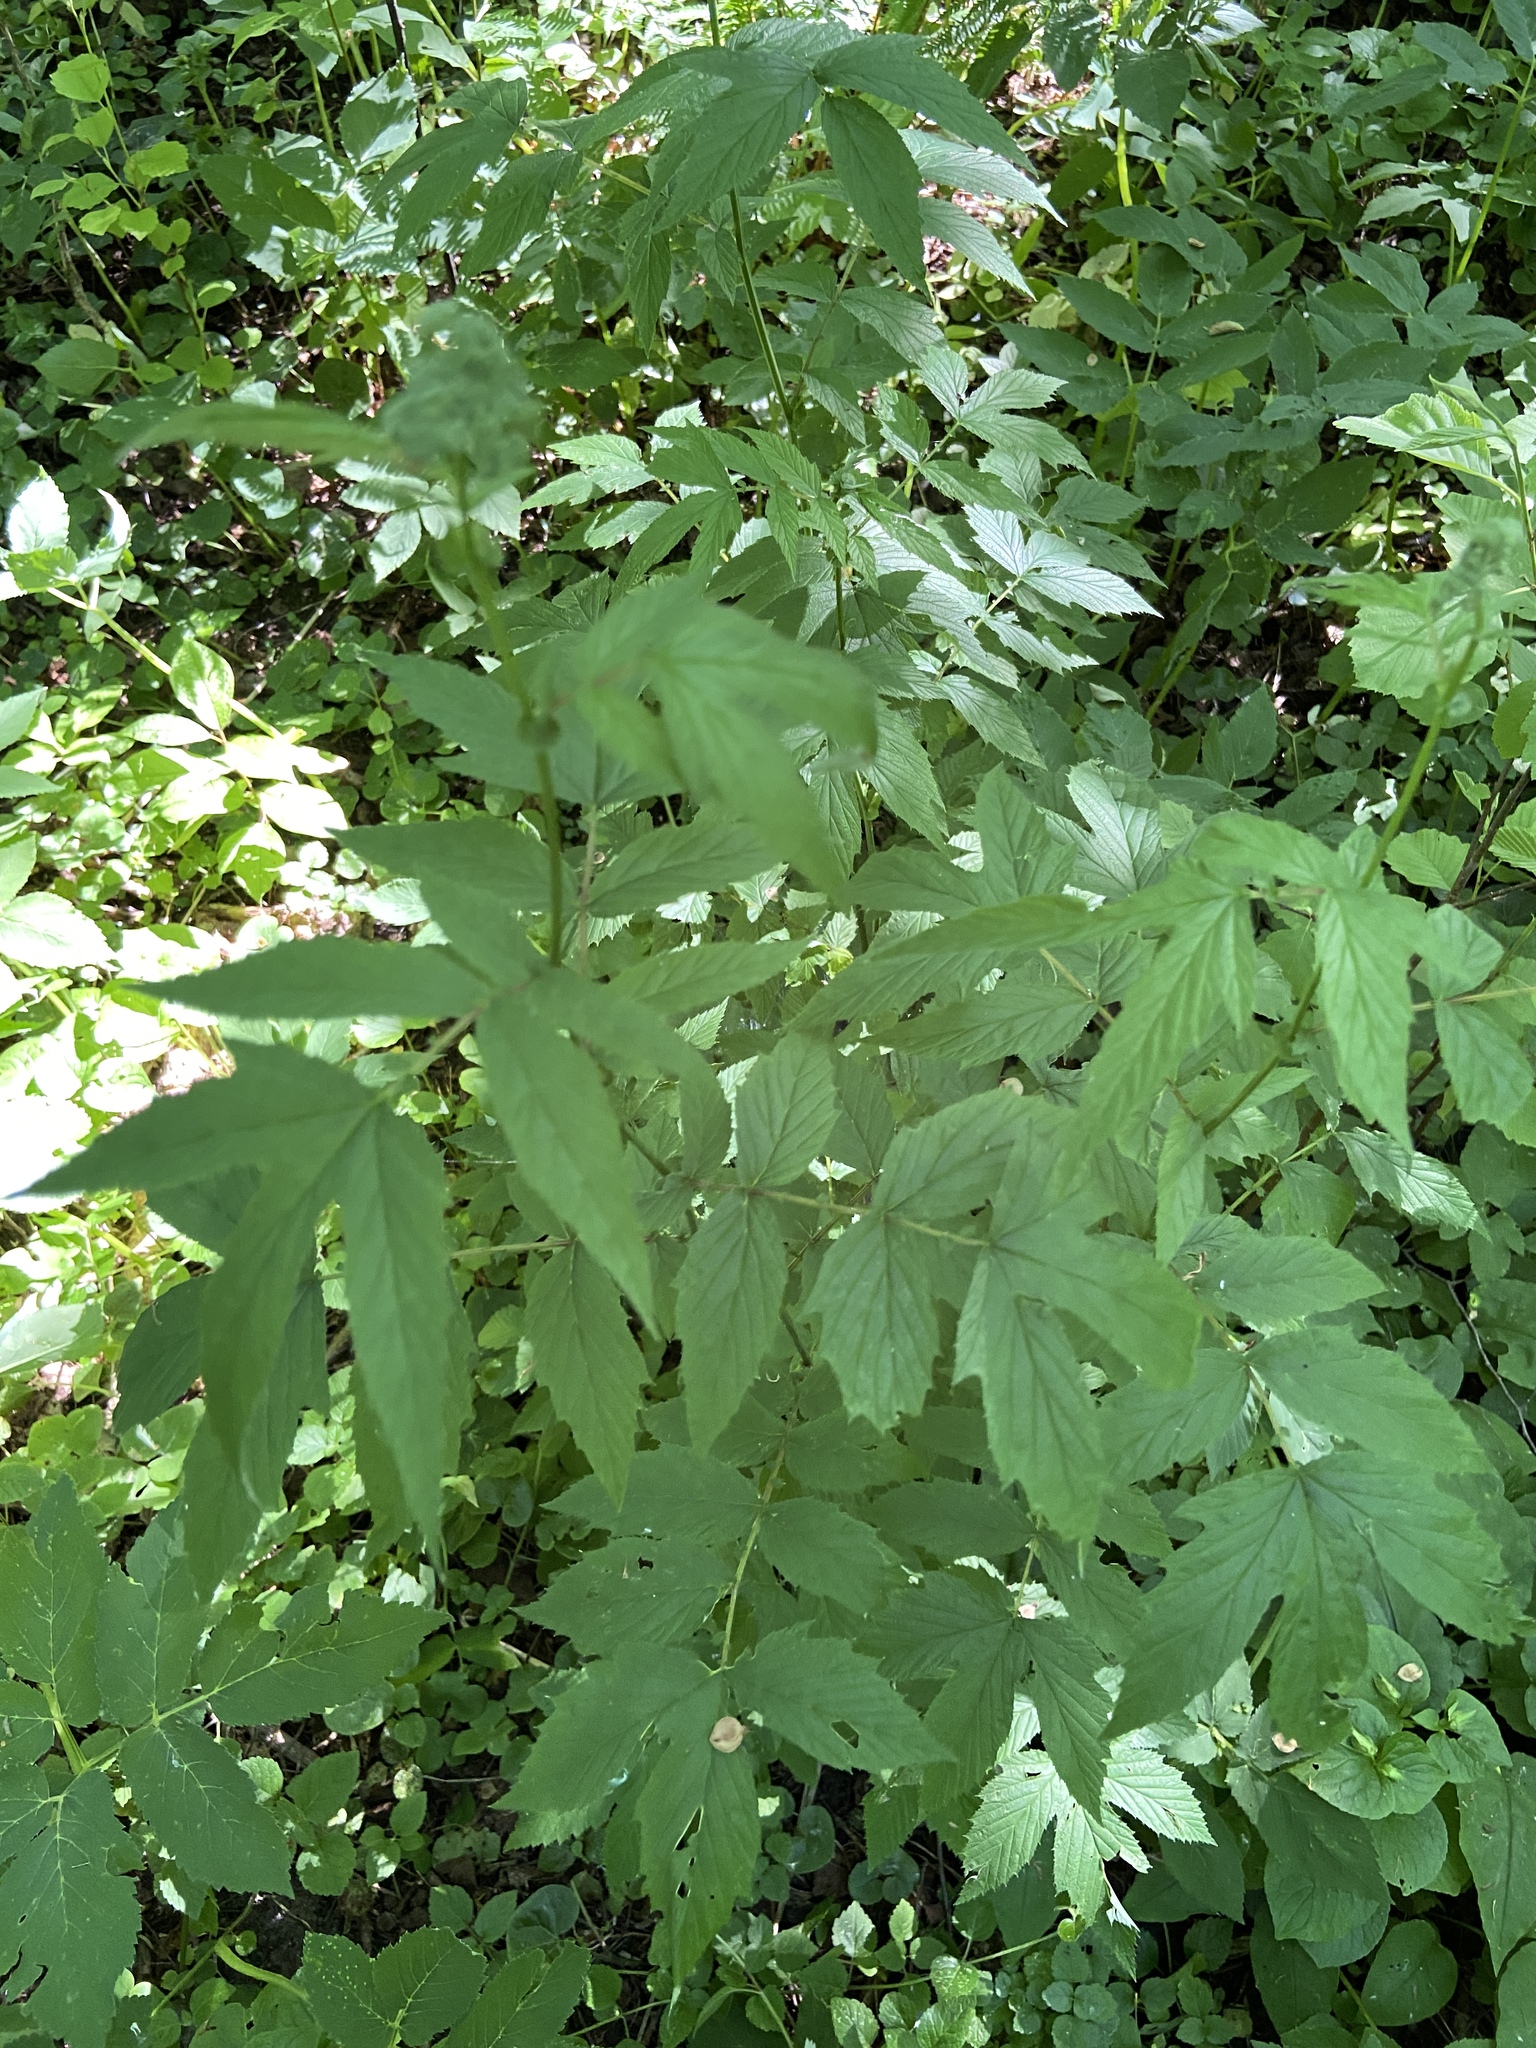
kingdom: Plantae
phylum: Tracheophyta
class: Magnoliopsida
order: Rosales
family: Rosaceae
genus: Filipendula
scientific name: Filipendula ulmaria
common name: Meadowsweet
